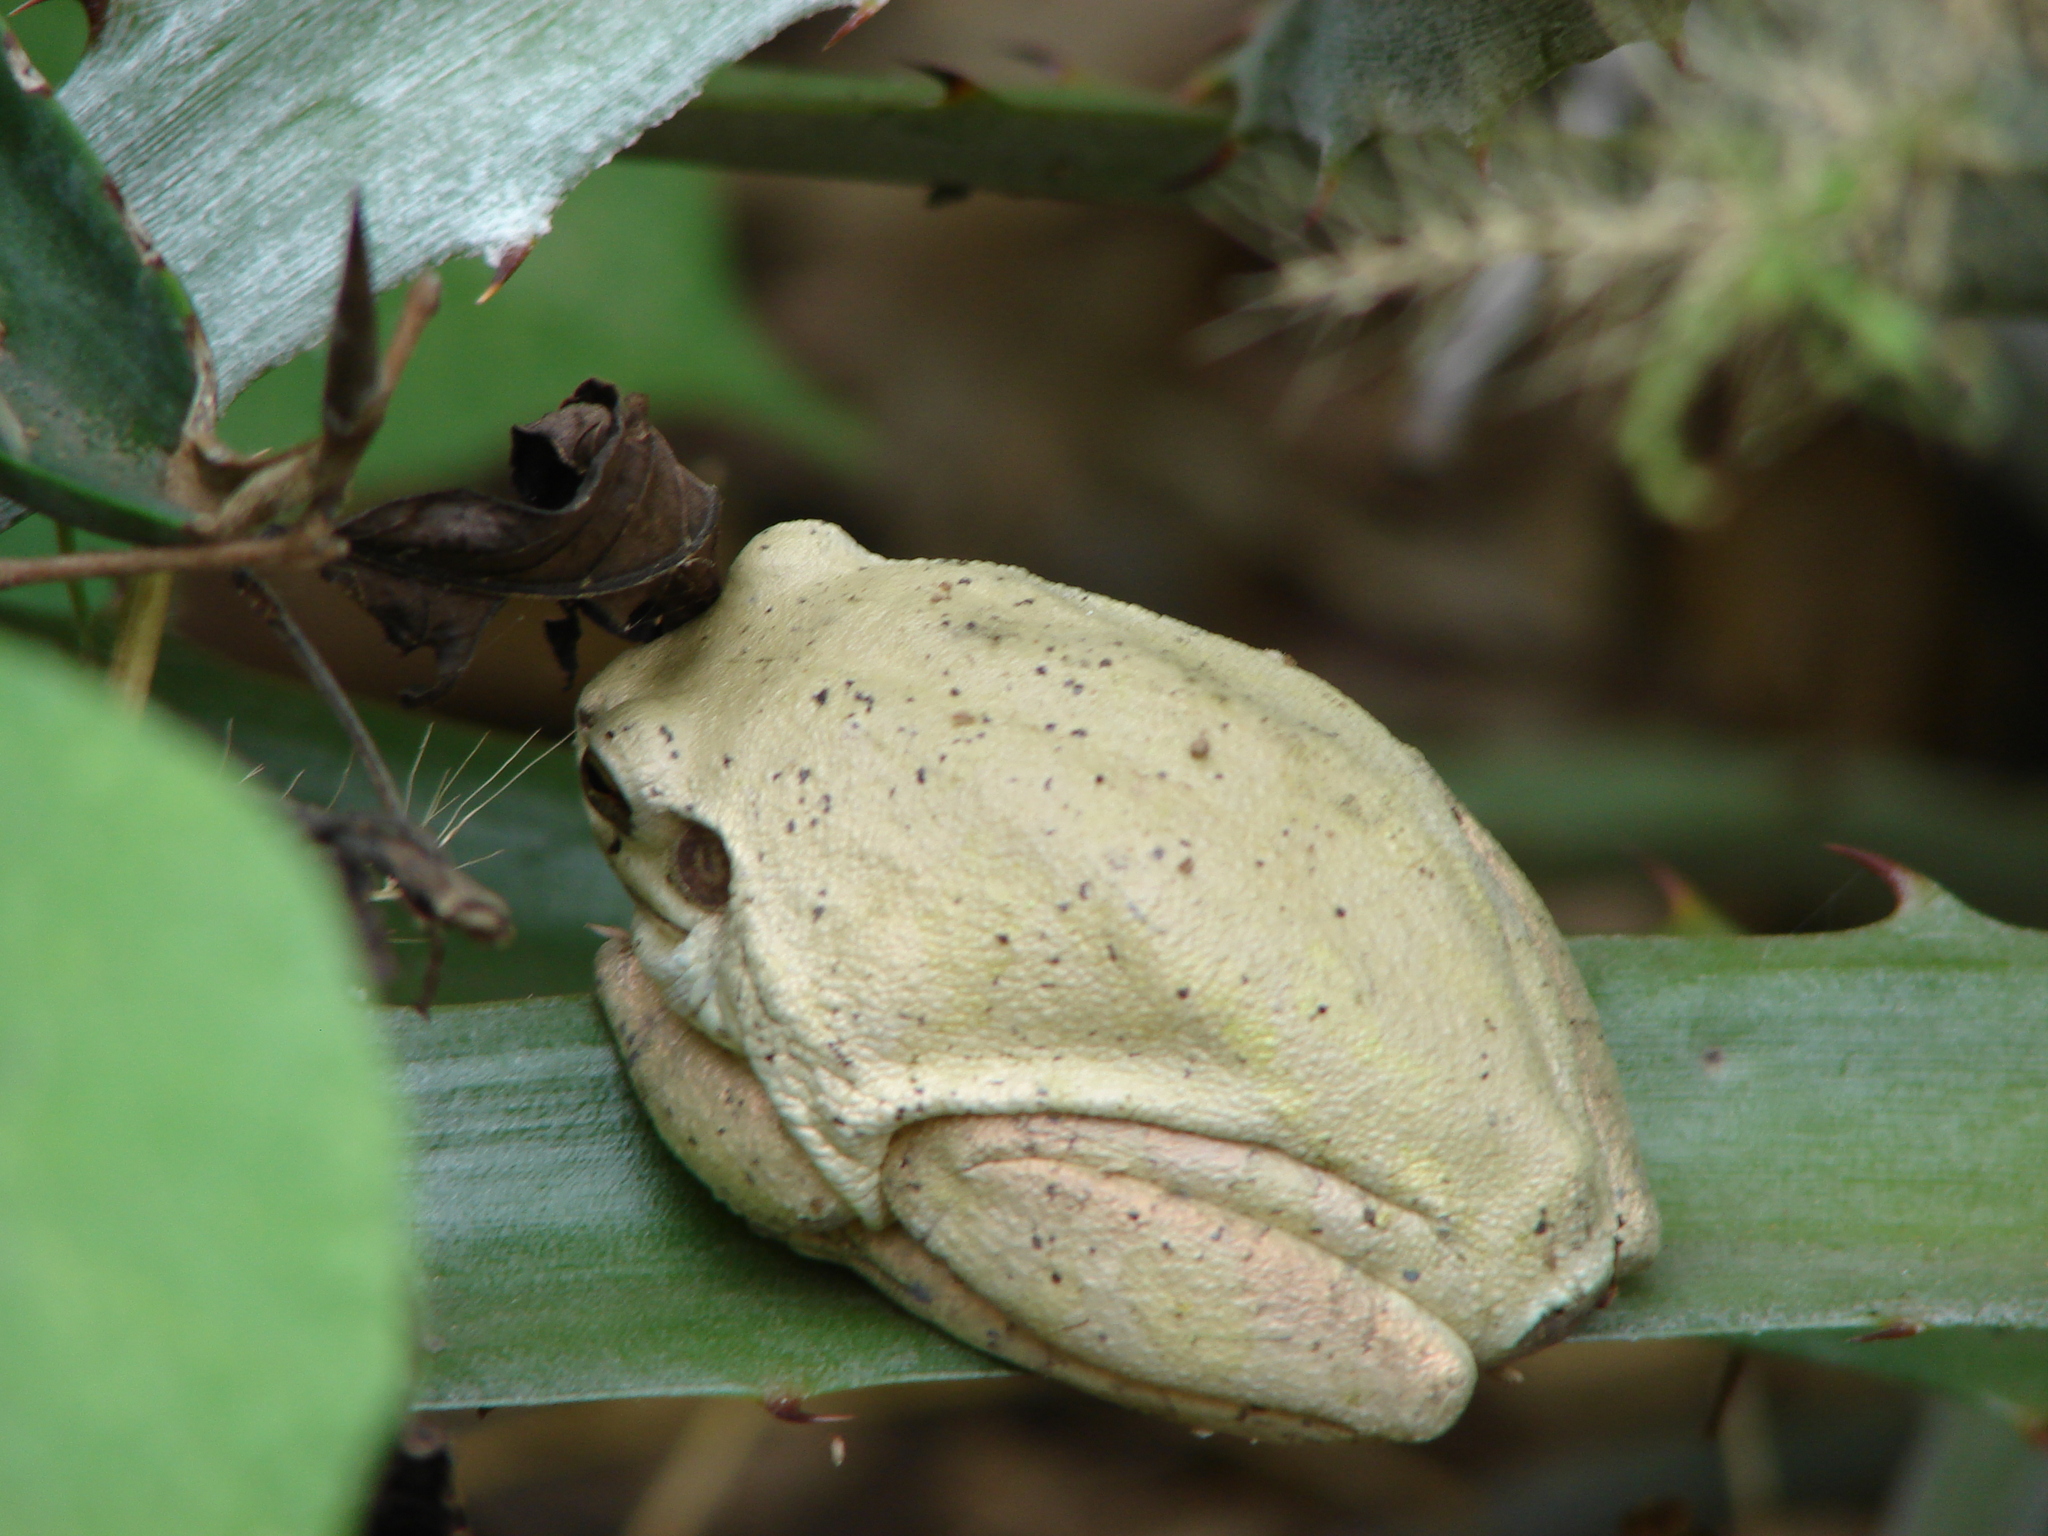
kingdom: Animalia
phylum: Chordata
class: Amphibia
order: Anura
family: Hylidae
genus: Smilisca
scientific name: Smilisca baudinii
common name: Mexican smilisca
